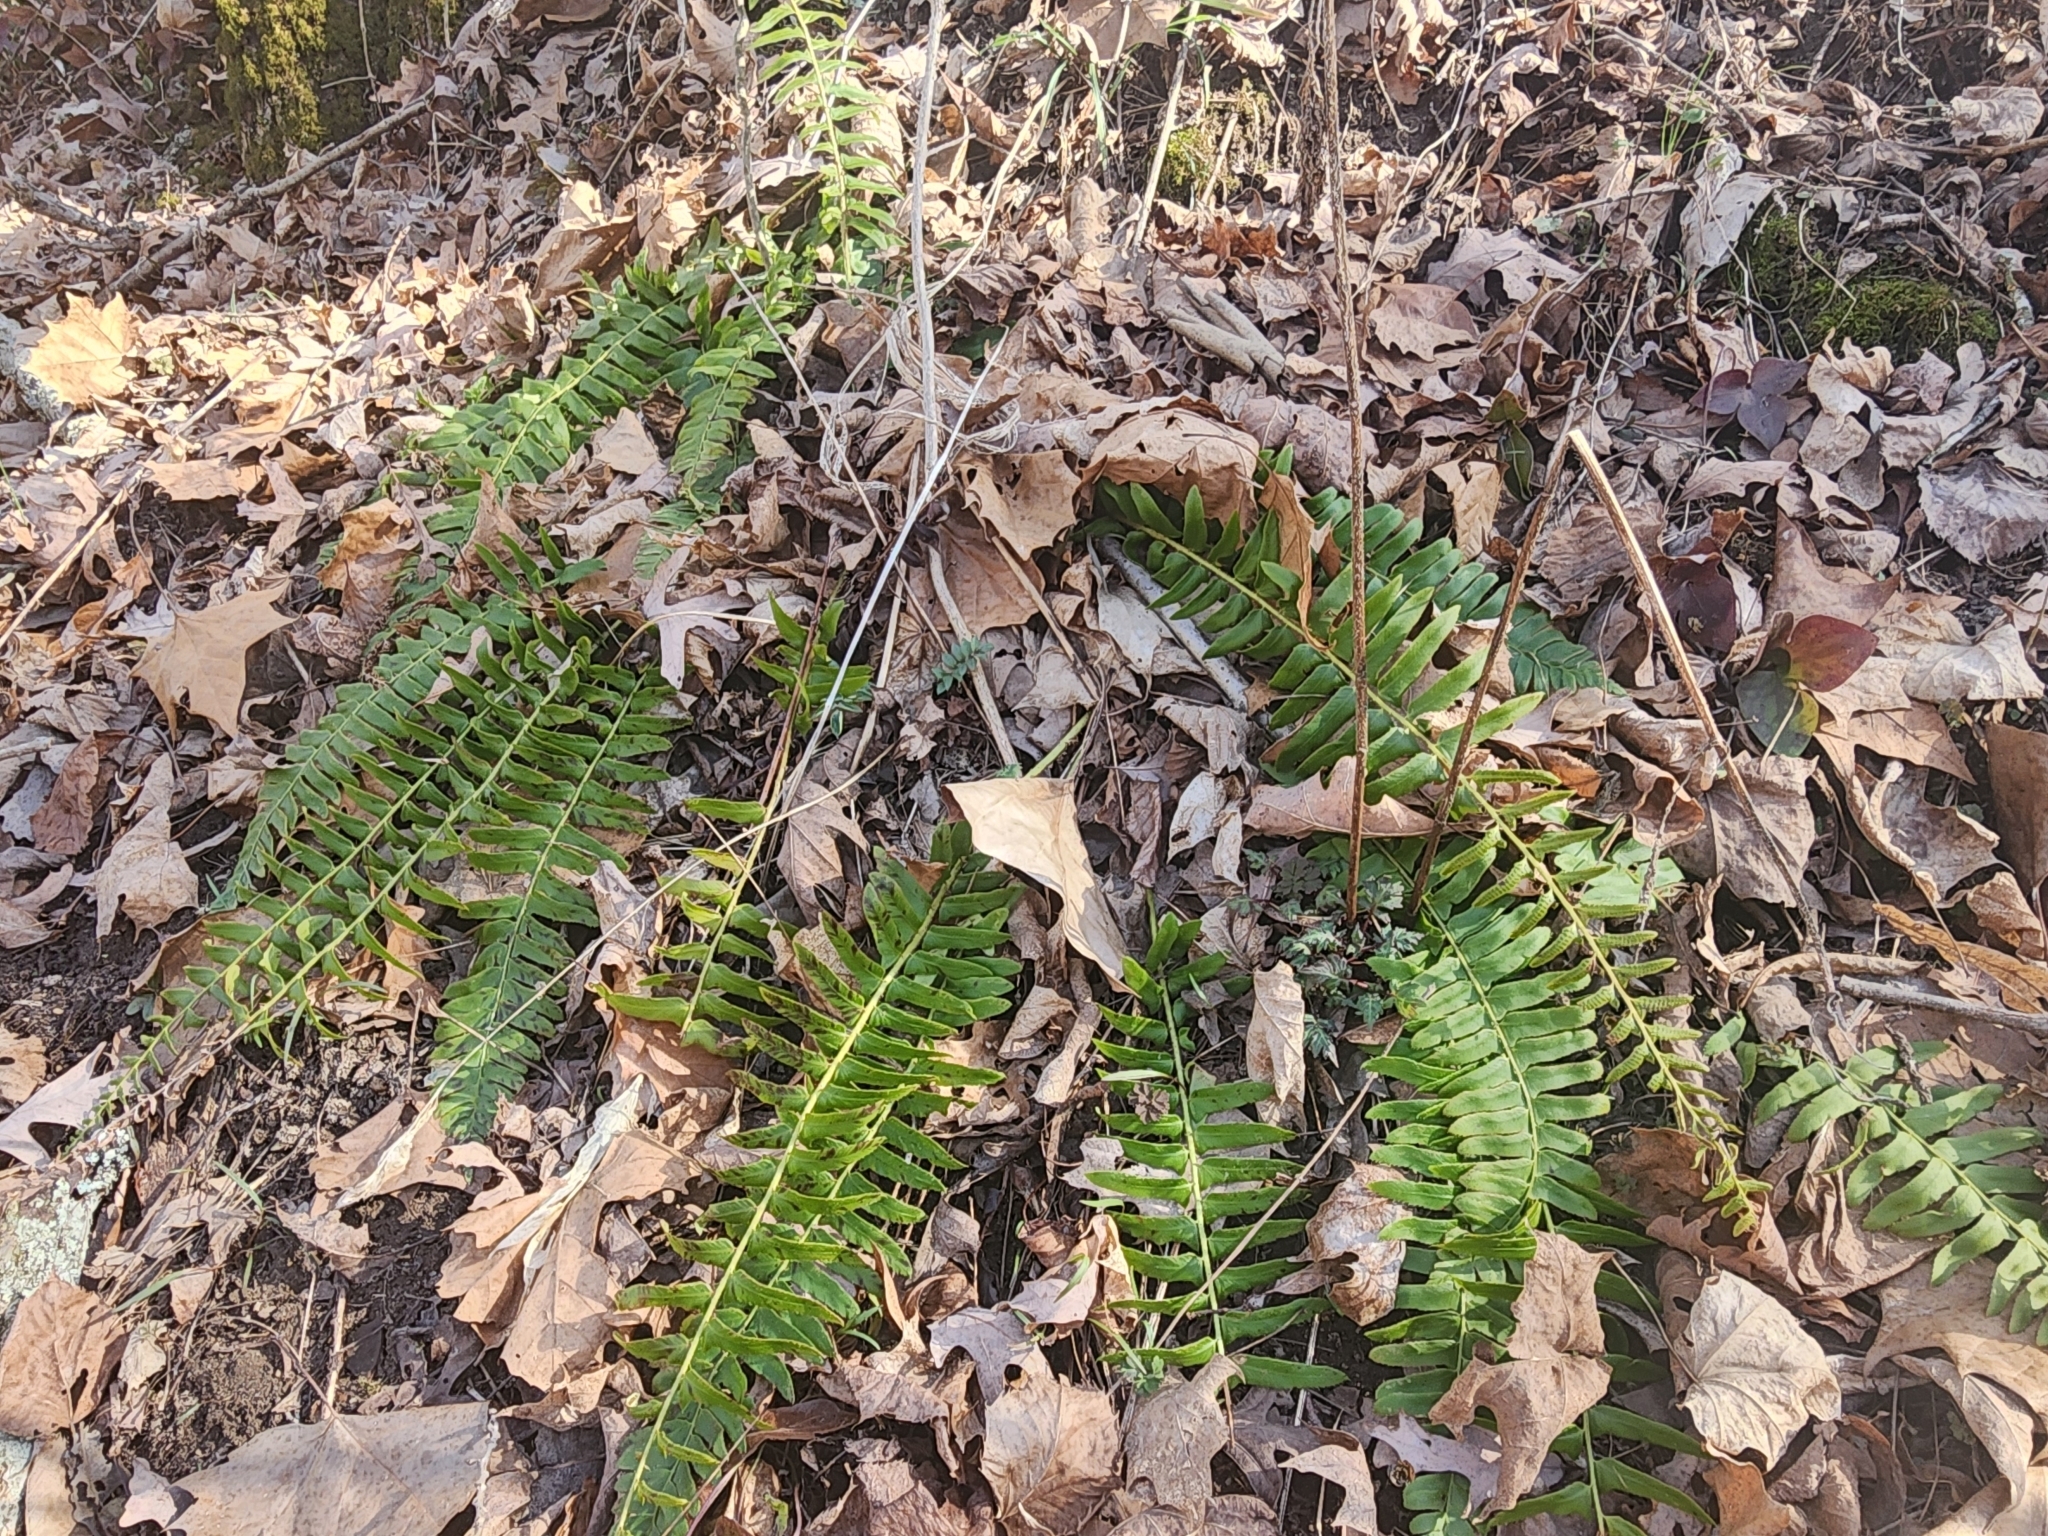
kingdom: Plantae
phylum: Tracheophyta
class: Polypodiopsida
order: Polypodiales
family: Dryopteridaceae
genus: Polystichum
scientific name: Polystichum acrostichoides
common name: Christmas fern
